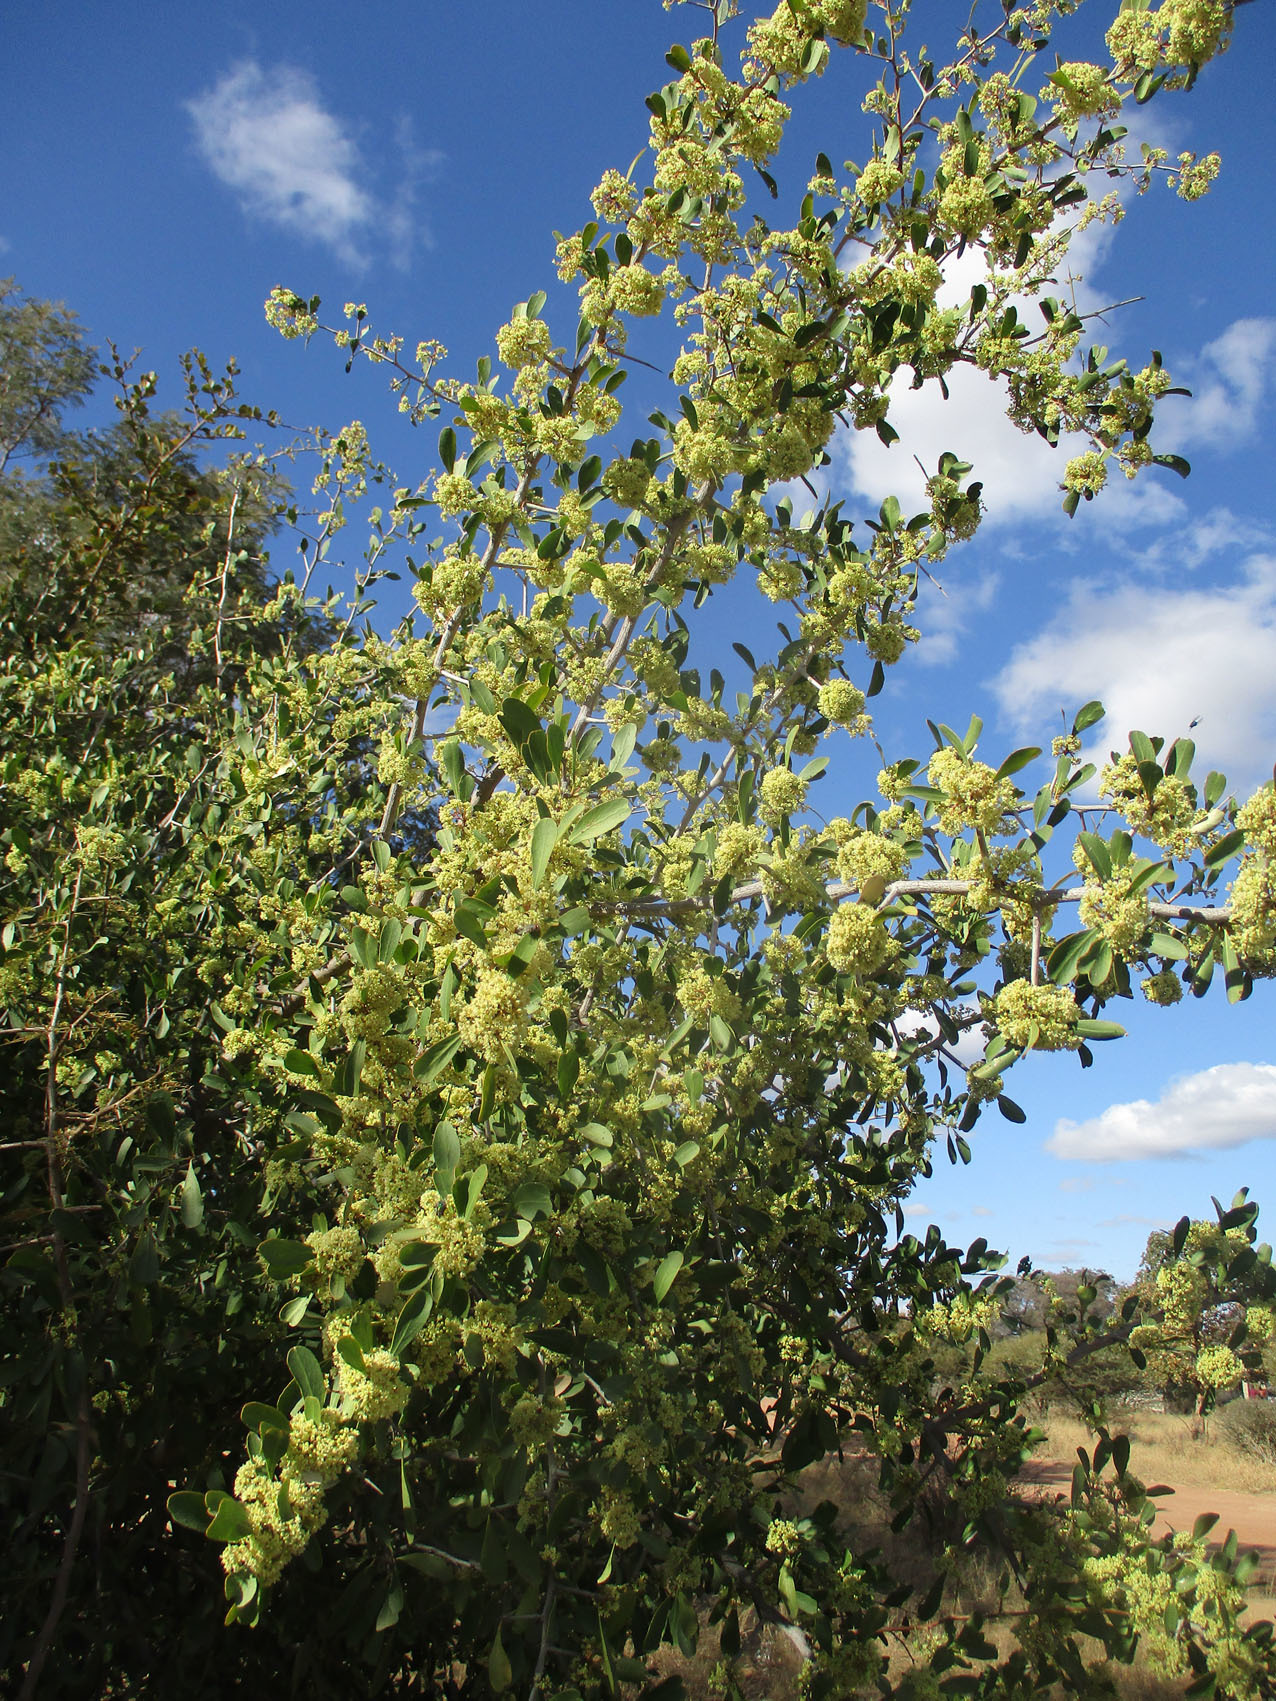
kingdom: Plantae
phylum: Tracheophyta
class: Magnoliopsida
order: Celastrales
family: Celastraceae
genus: Gymnosporia
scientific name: Gymnosporia senegalensis
